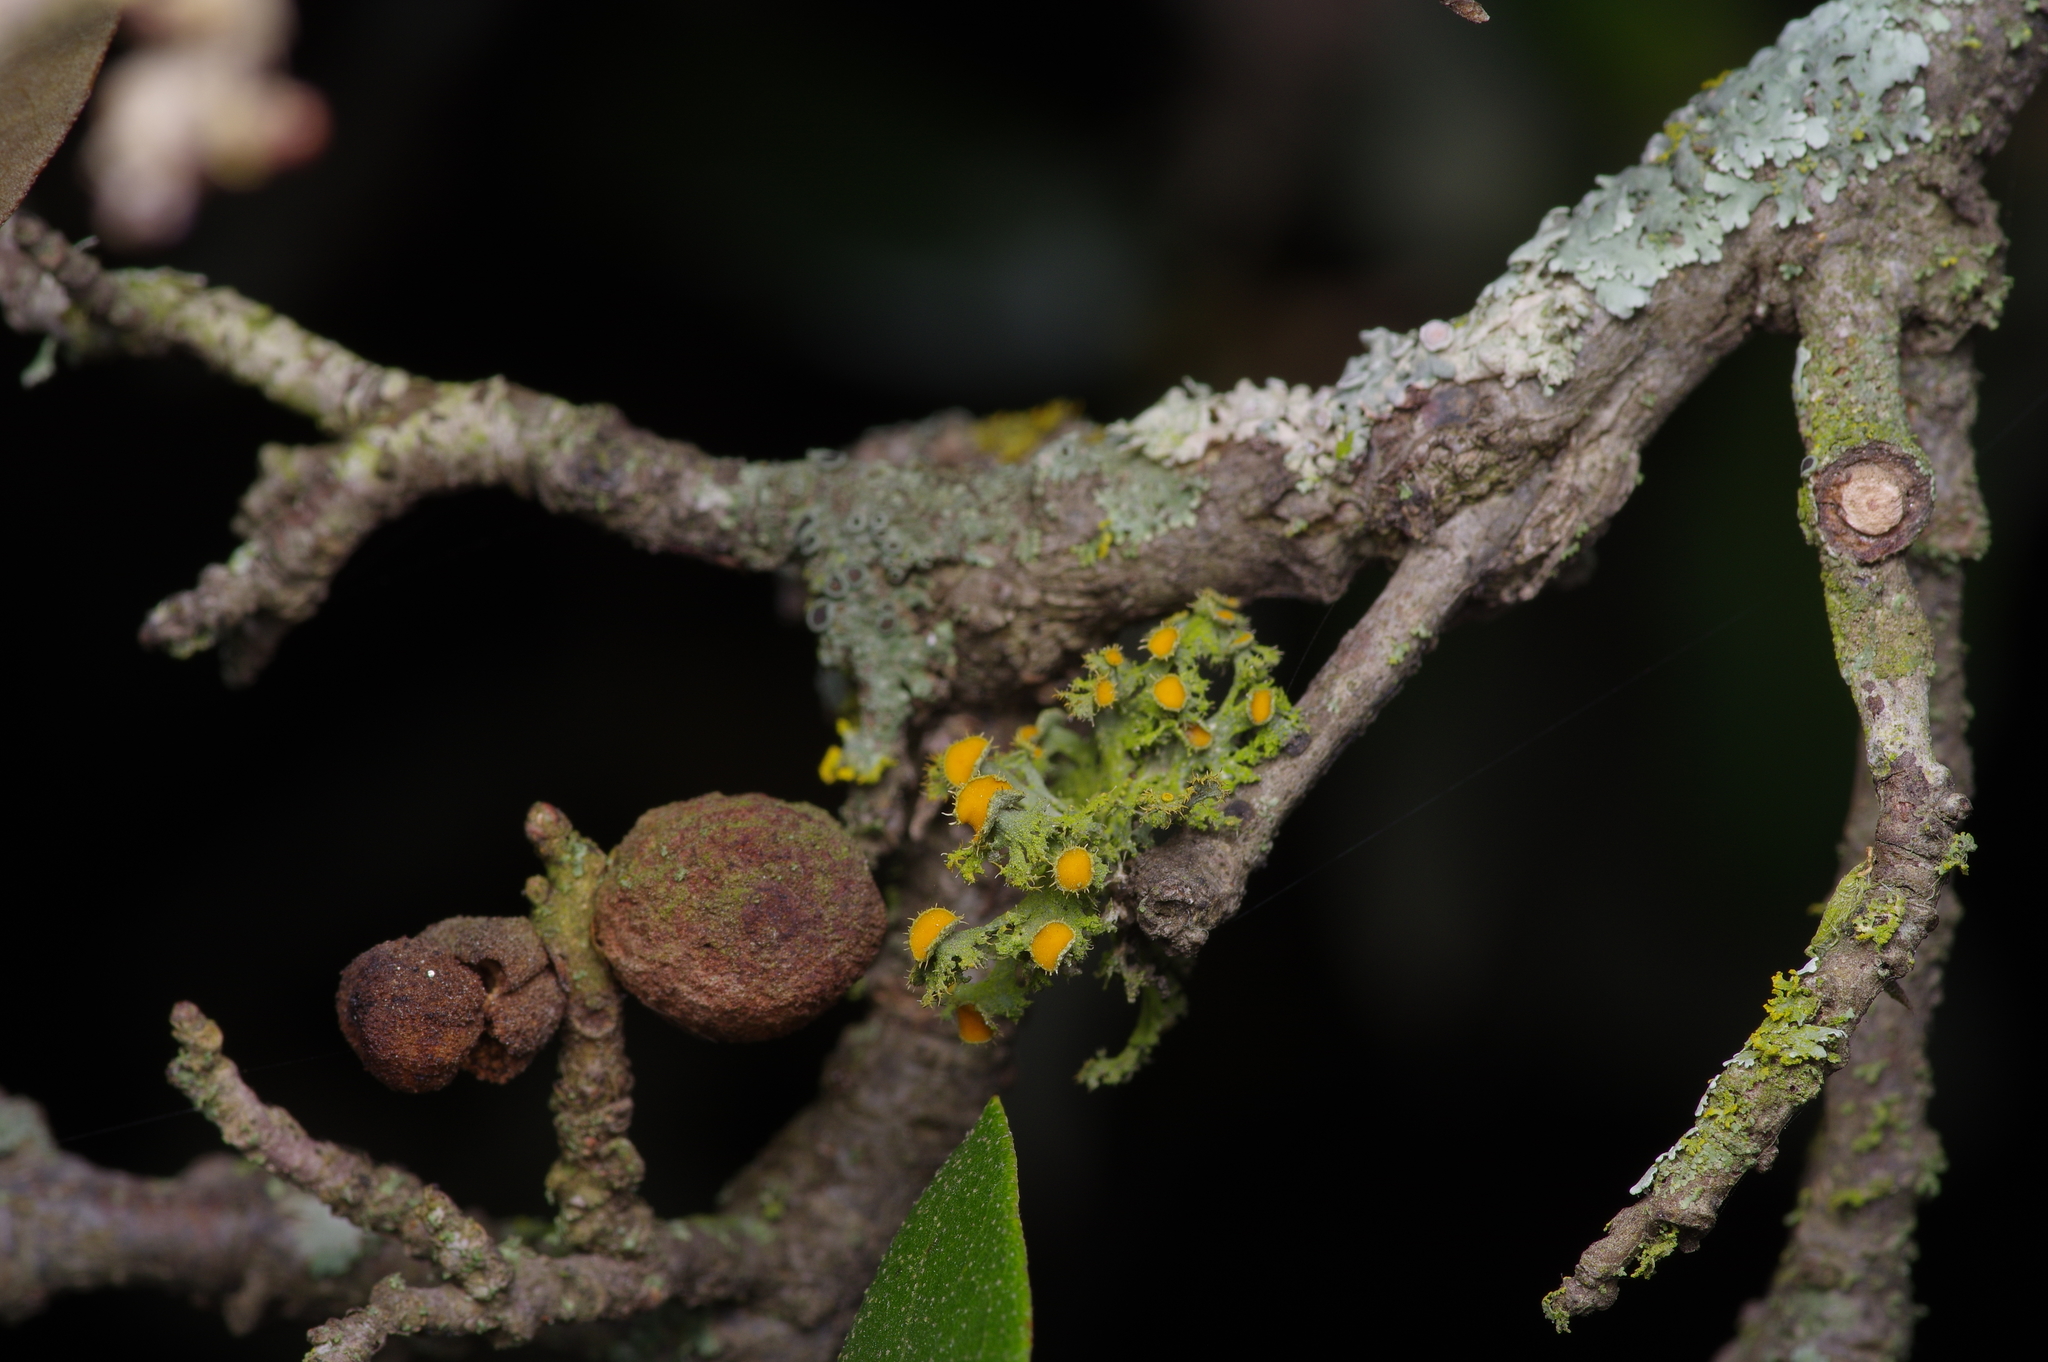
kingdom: Fungi
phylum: Ascomycota
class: Lecanoromycetes
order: Teloschistales
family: Teloschistaceae
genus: Niorma
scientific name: Niorma chrysophthalma
